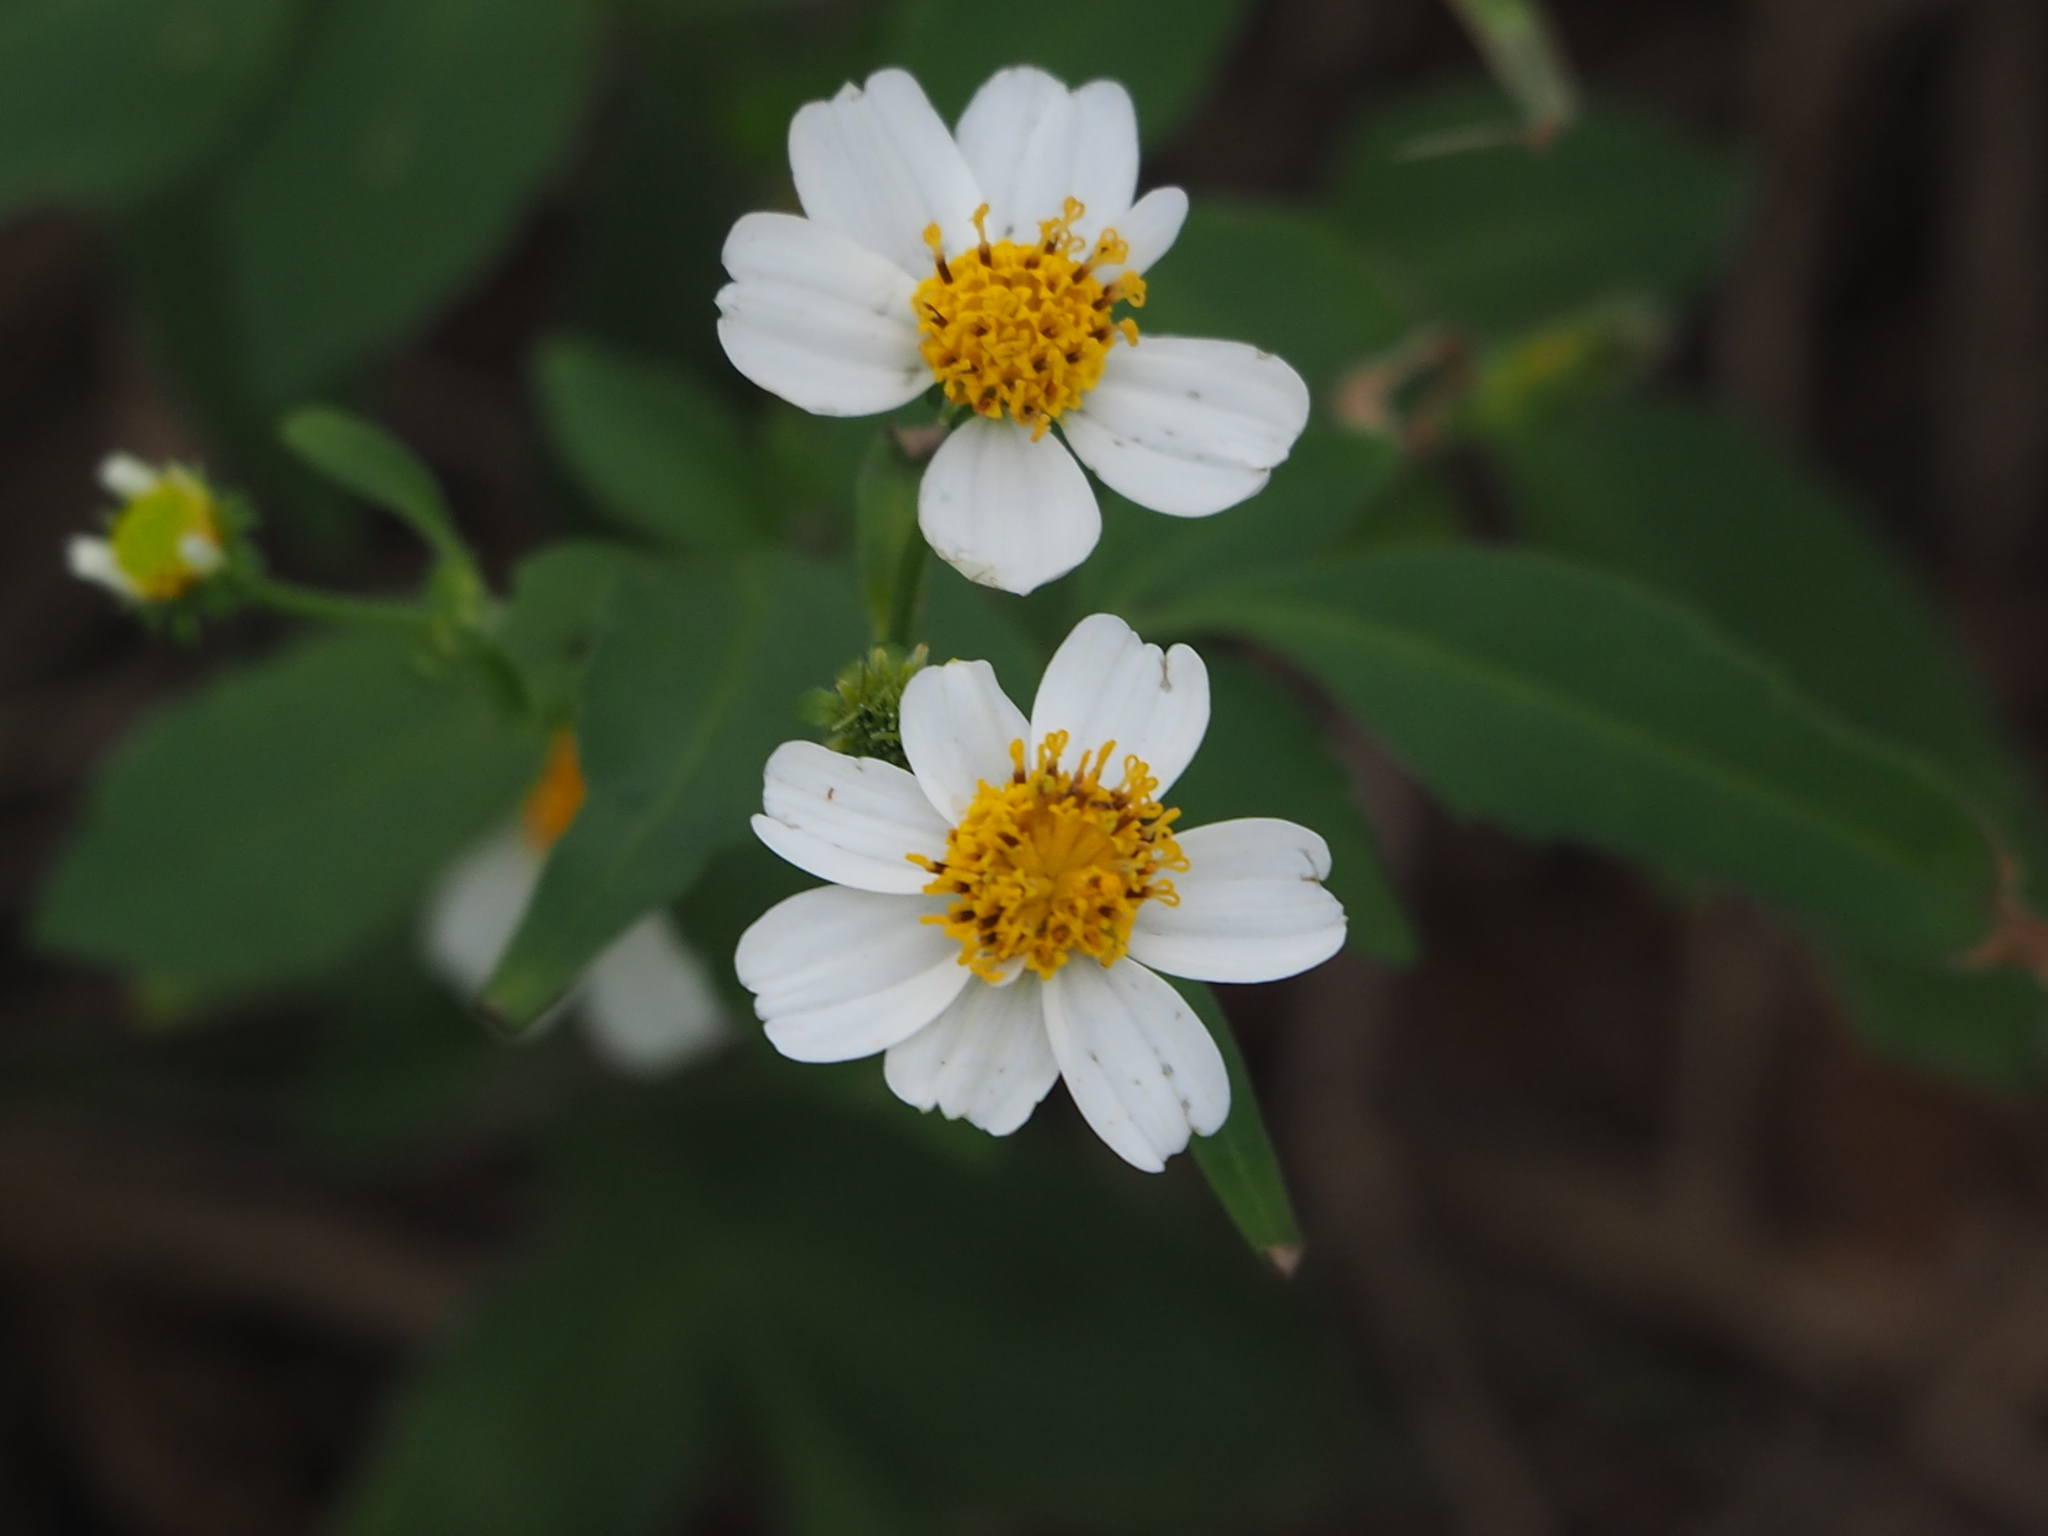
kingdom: Plantae
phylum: Tracheophyta
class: Magnoliopsida
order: Asterales
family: Asteraceae
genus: Bidens
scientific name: Bidens alba
